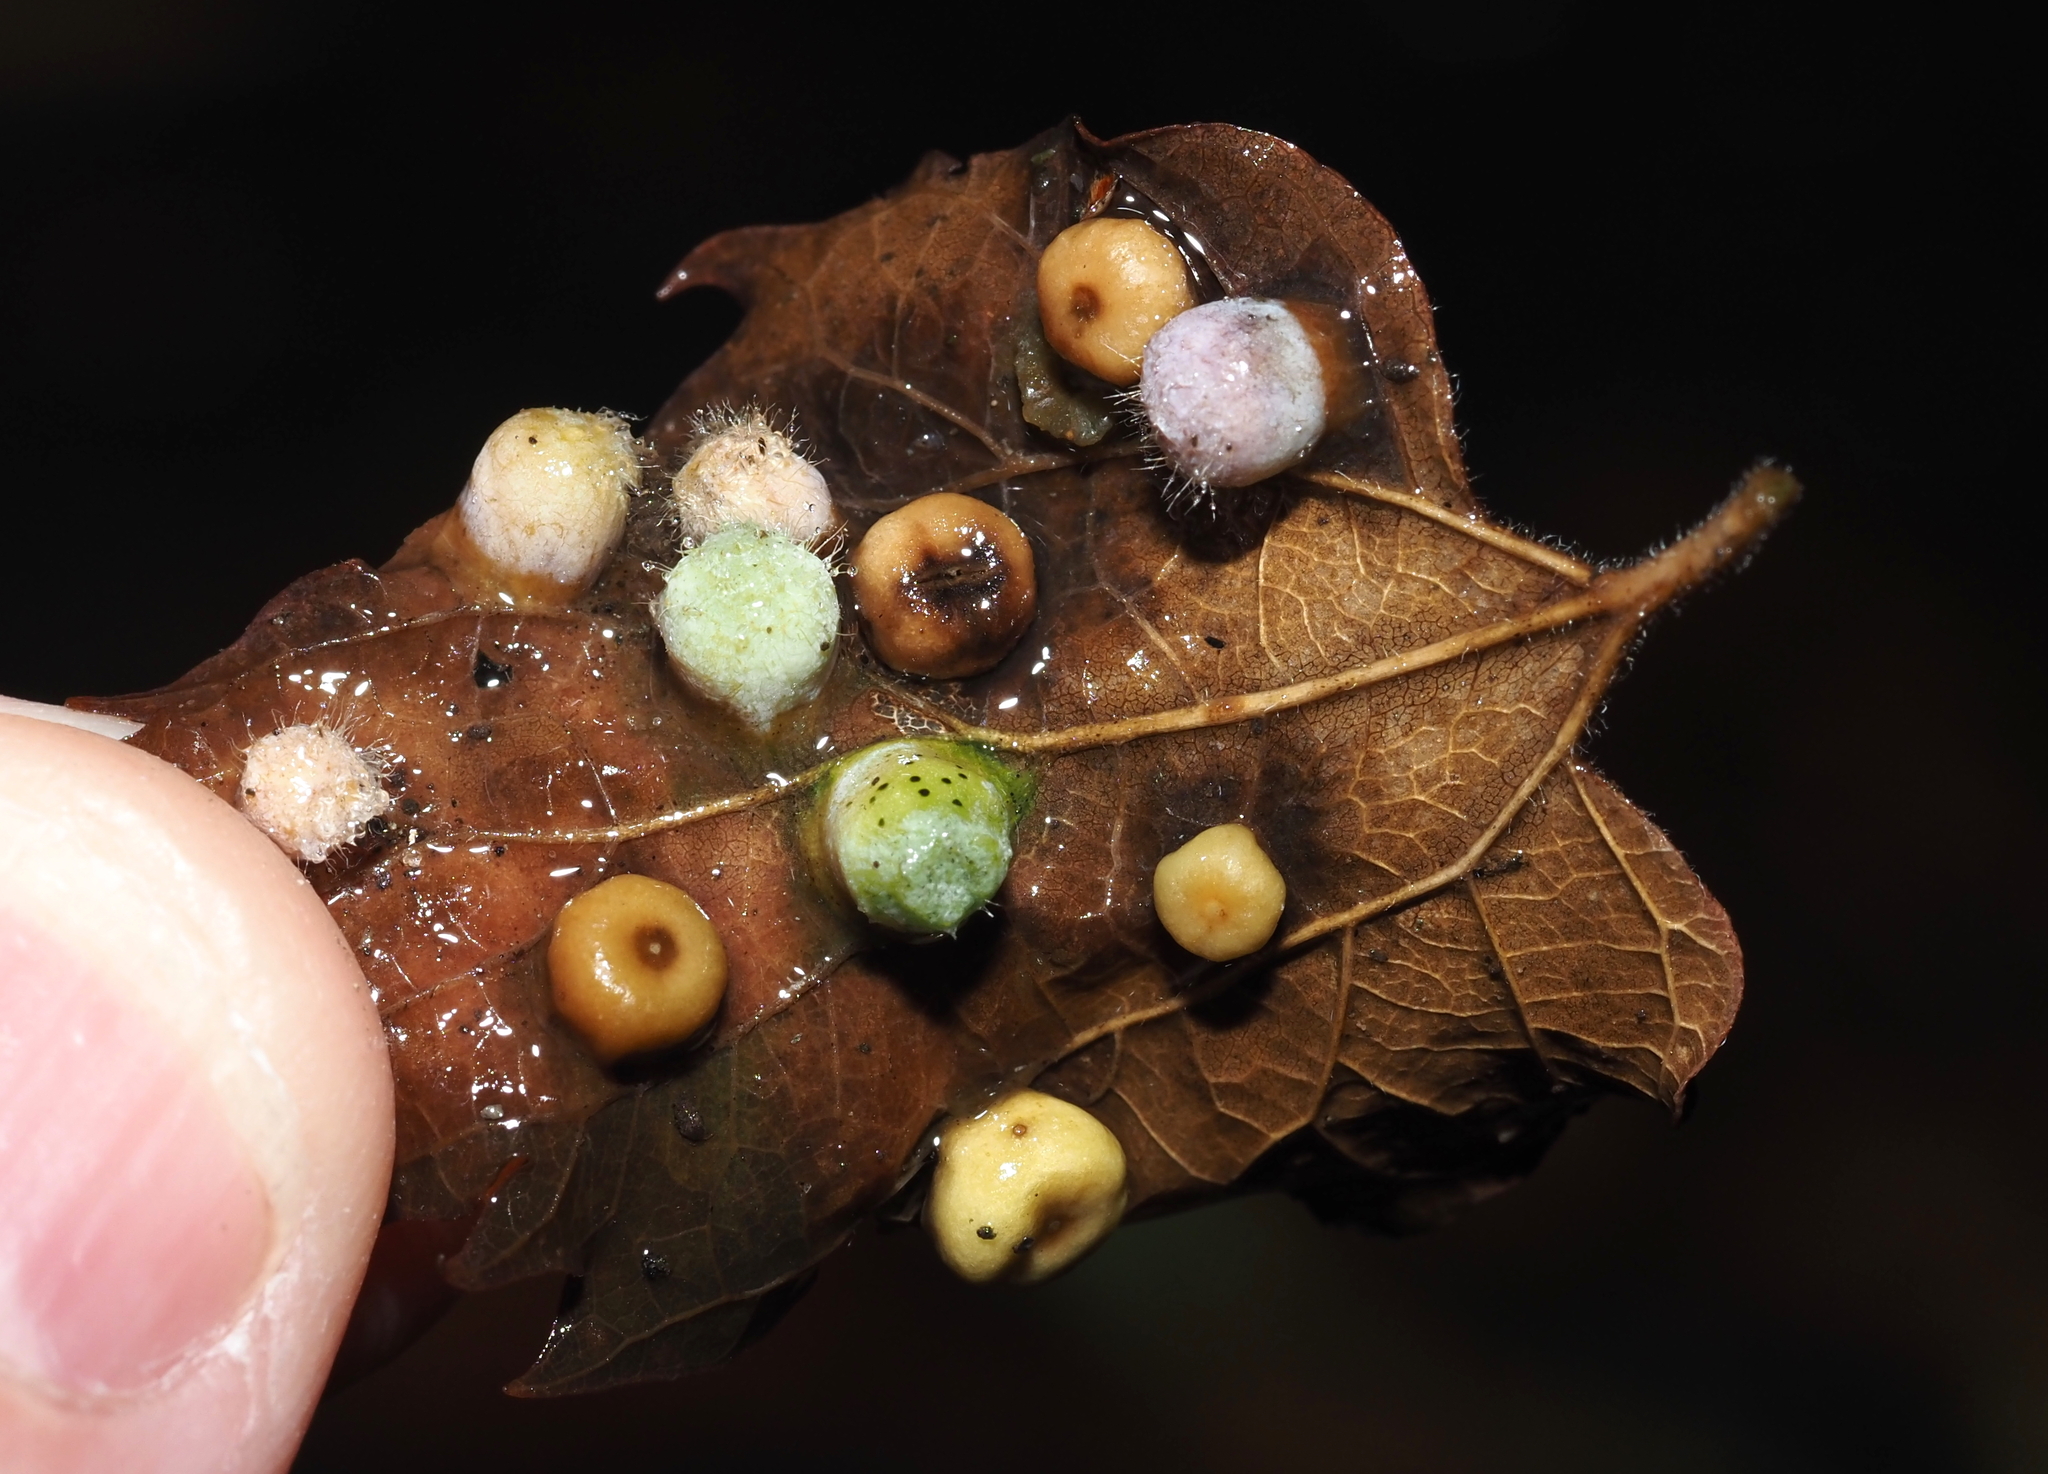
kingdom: Animalia
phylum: Arthropoda
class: Insecta
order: Hemiptera
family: Aphalaridae
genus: Pachypsylla
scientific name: Pachypsylla celtidismamma
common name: Hackberry nipplegall psyllid
